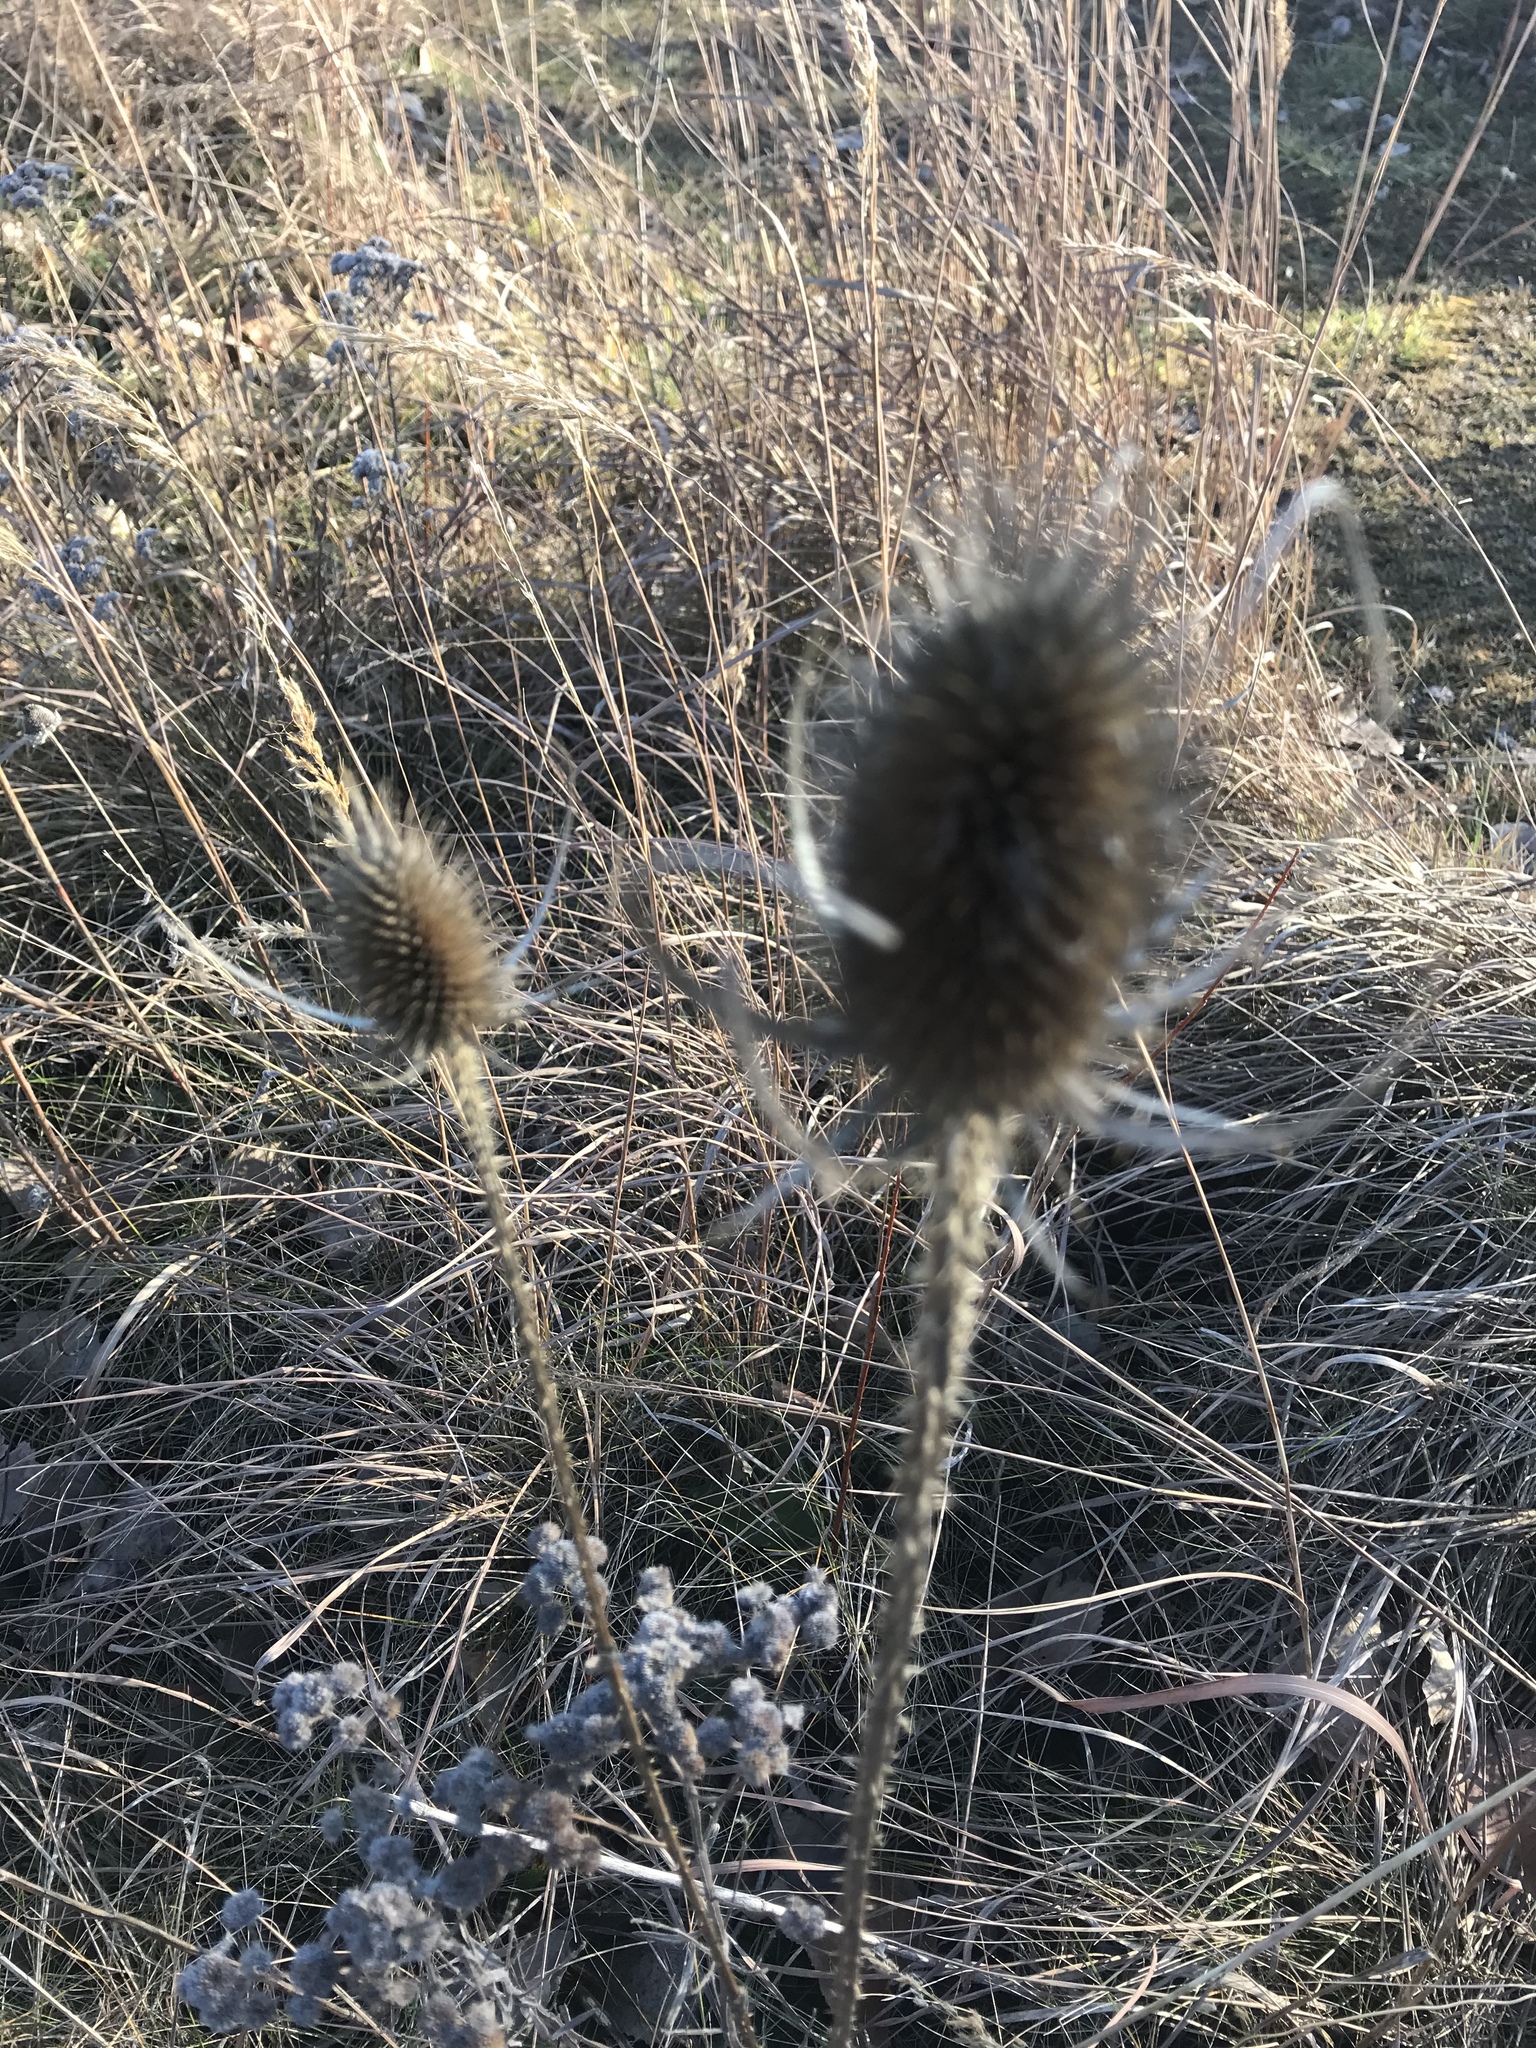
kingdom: Plantae
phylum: Tracheophyta
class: Magnoliopsida
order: Dipsacales
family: Caprifoliaceae
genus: Dipsacus
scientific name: Dipsacus fullonum
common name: Teasel
